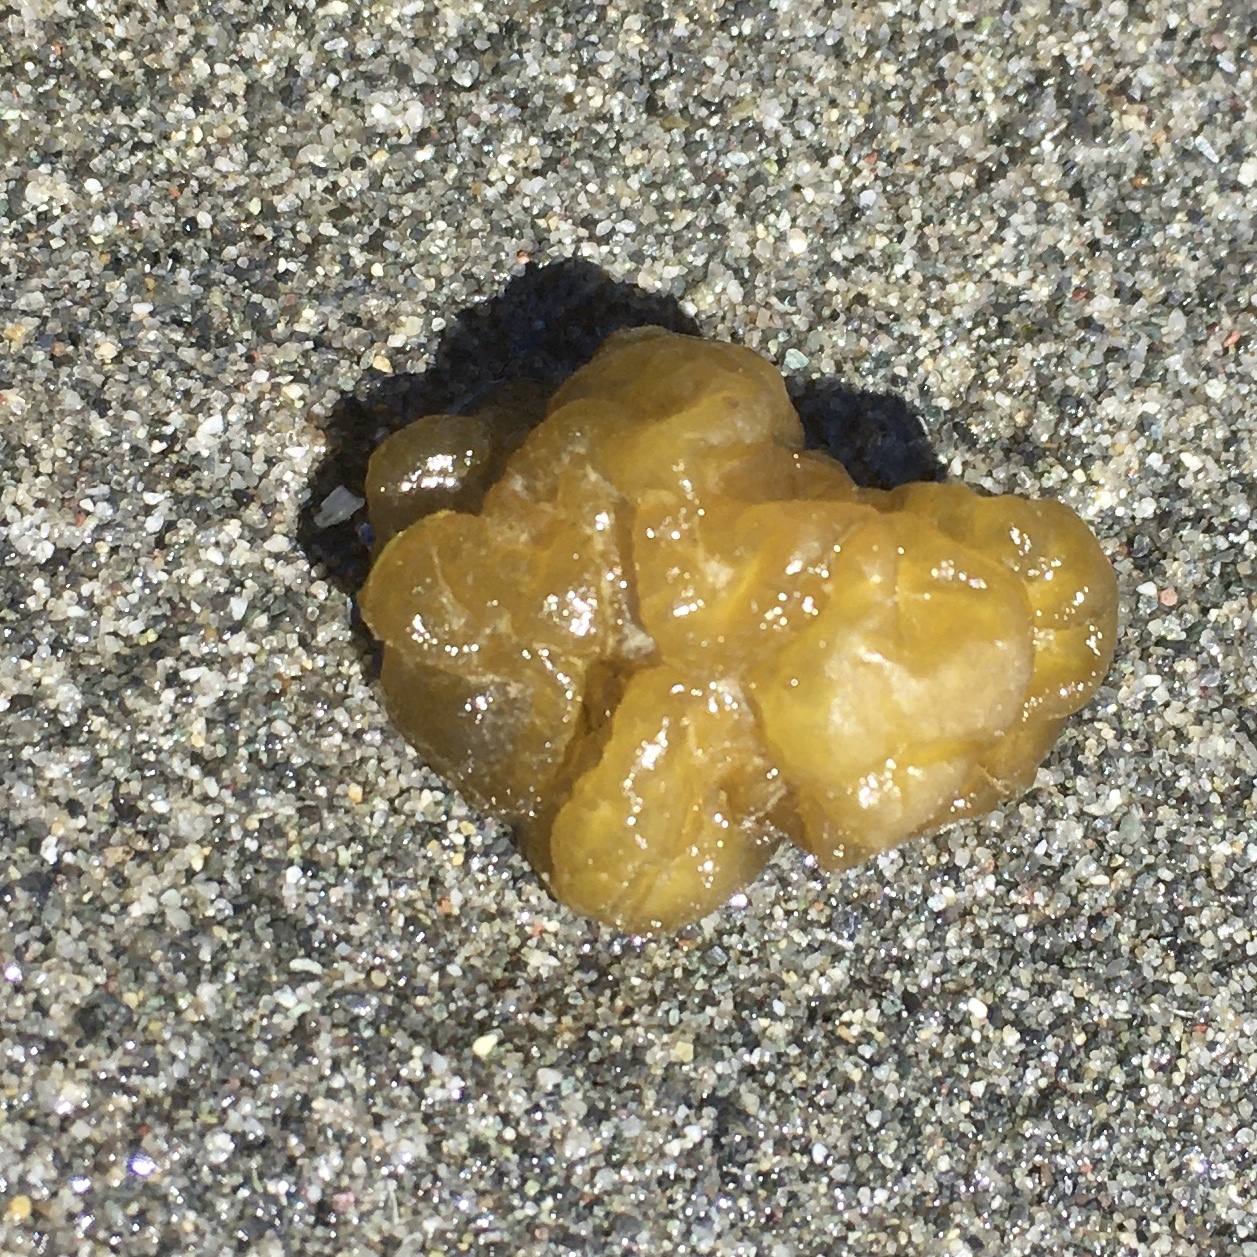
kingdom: Chromista
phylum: Ochrophyta
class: Phaeophyceae
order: Ectocarpales
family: Chordariaceae
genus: Leathesia
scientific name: Leathesia marina
